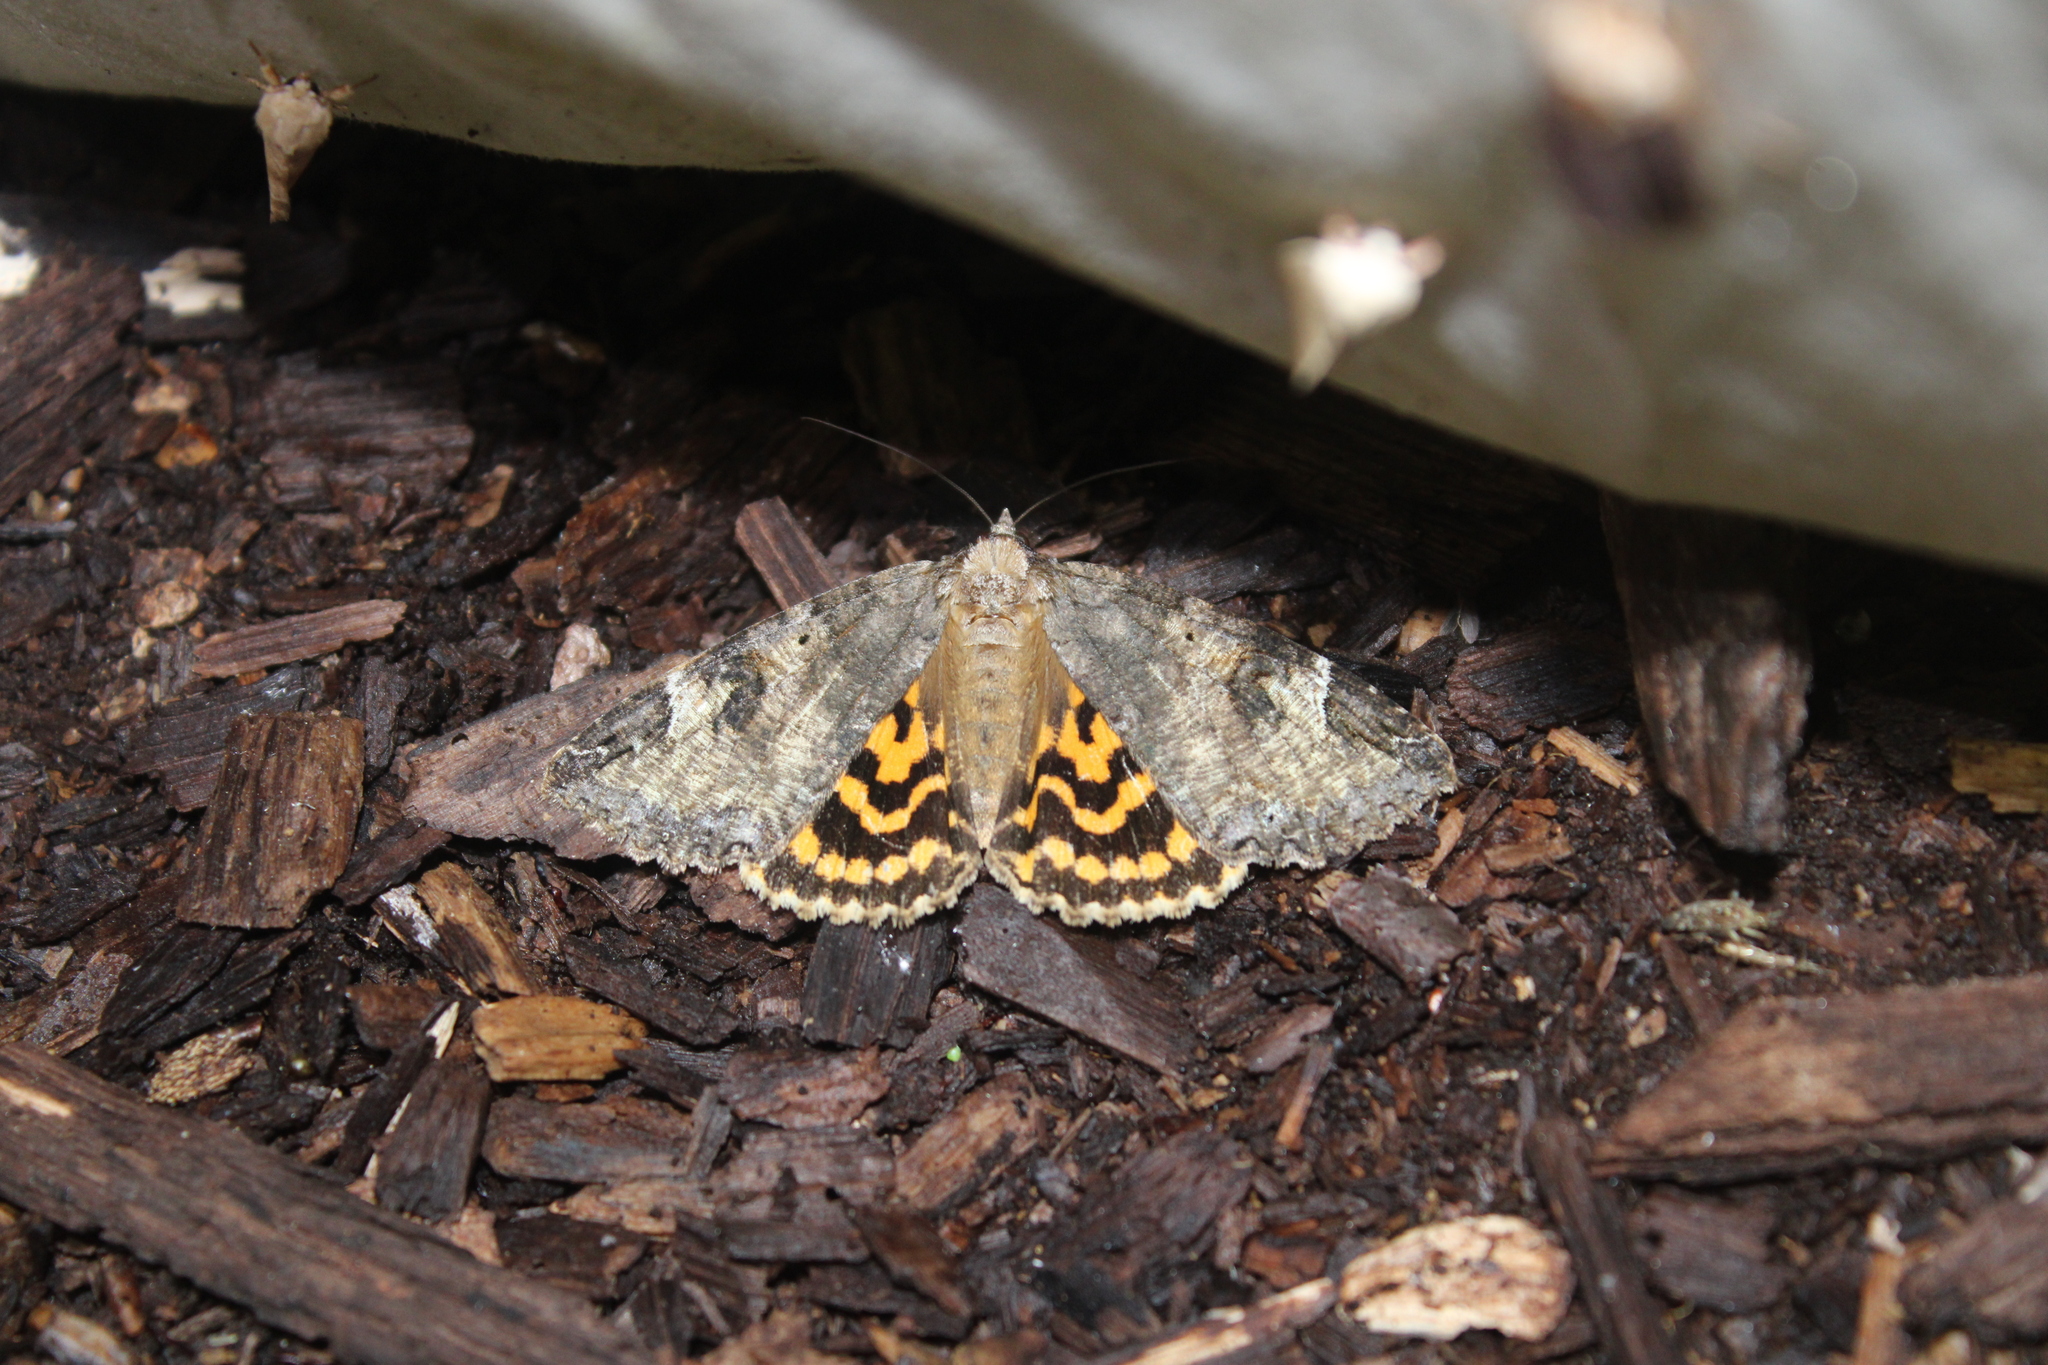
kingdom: Animalia
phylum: Arthropoda
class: Insecta
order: Lepidoptera
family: Erebidae
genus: Euparthenos
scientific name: Euparthenos nubilis
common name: Locust underwing
